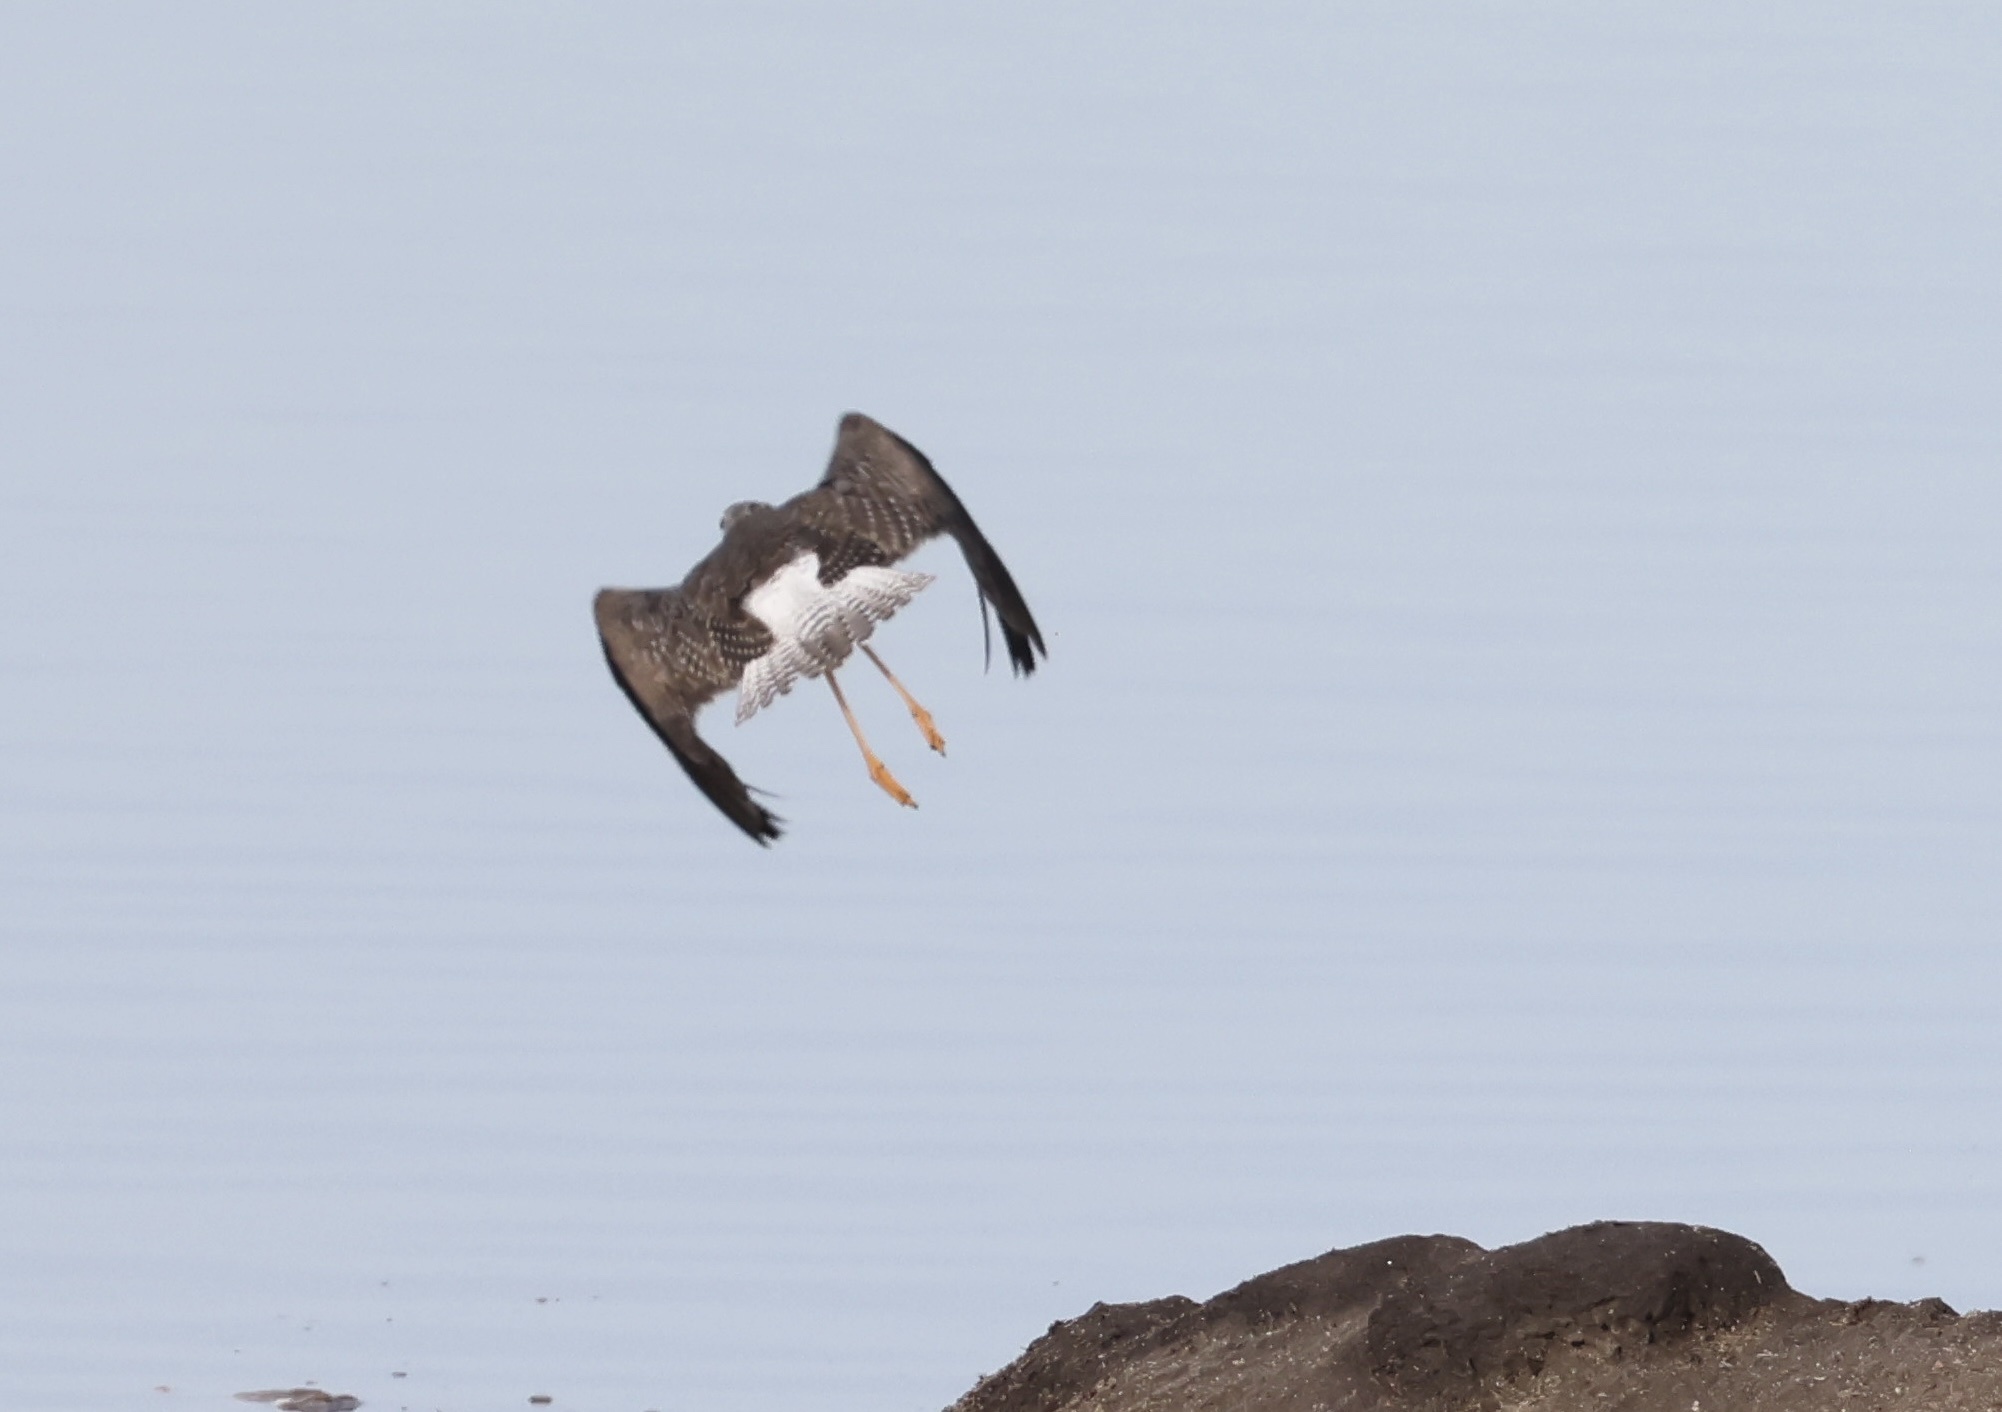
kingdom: Animalia
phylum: Chordata
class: Aves
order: Charadriiformes
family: Scolopacidae
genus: Tringa
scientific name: Tringa melanoleuca
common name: Greater yellowlegs
